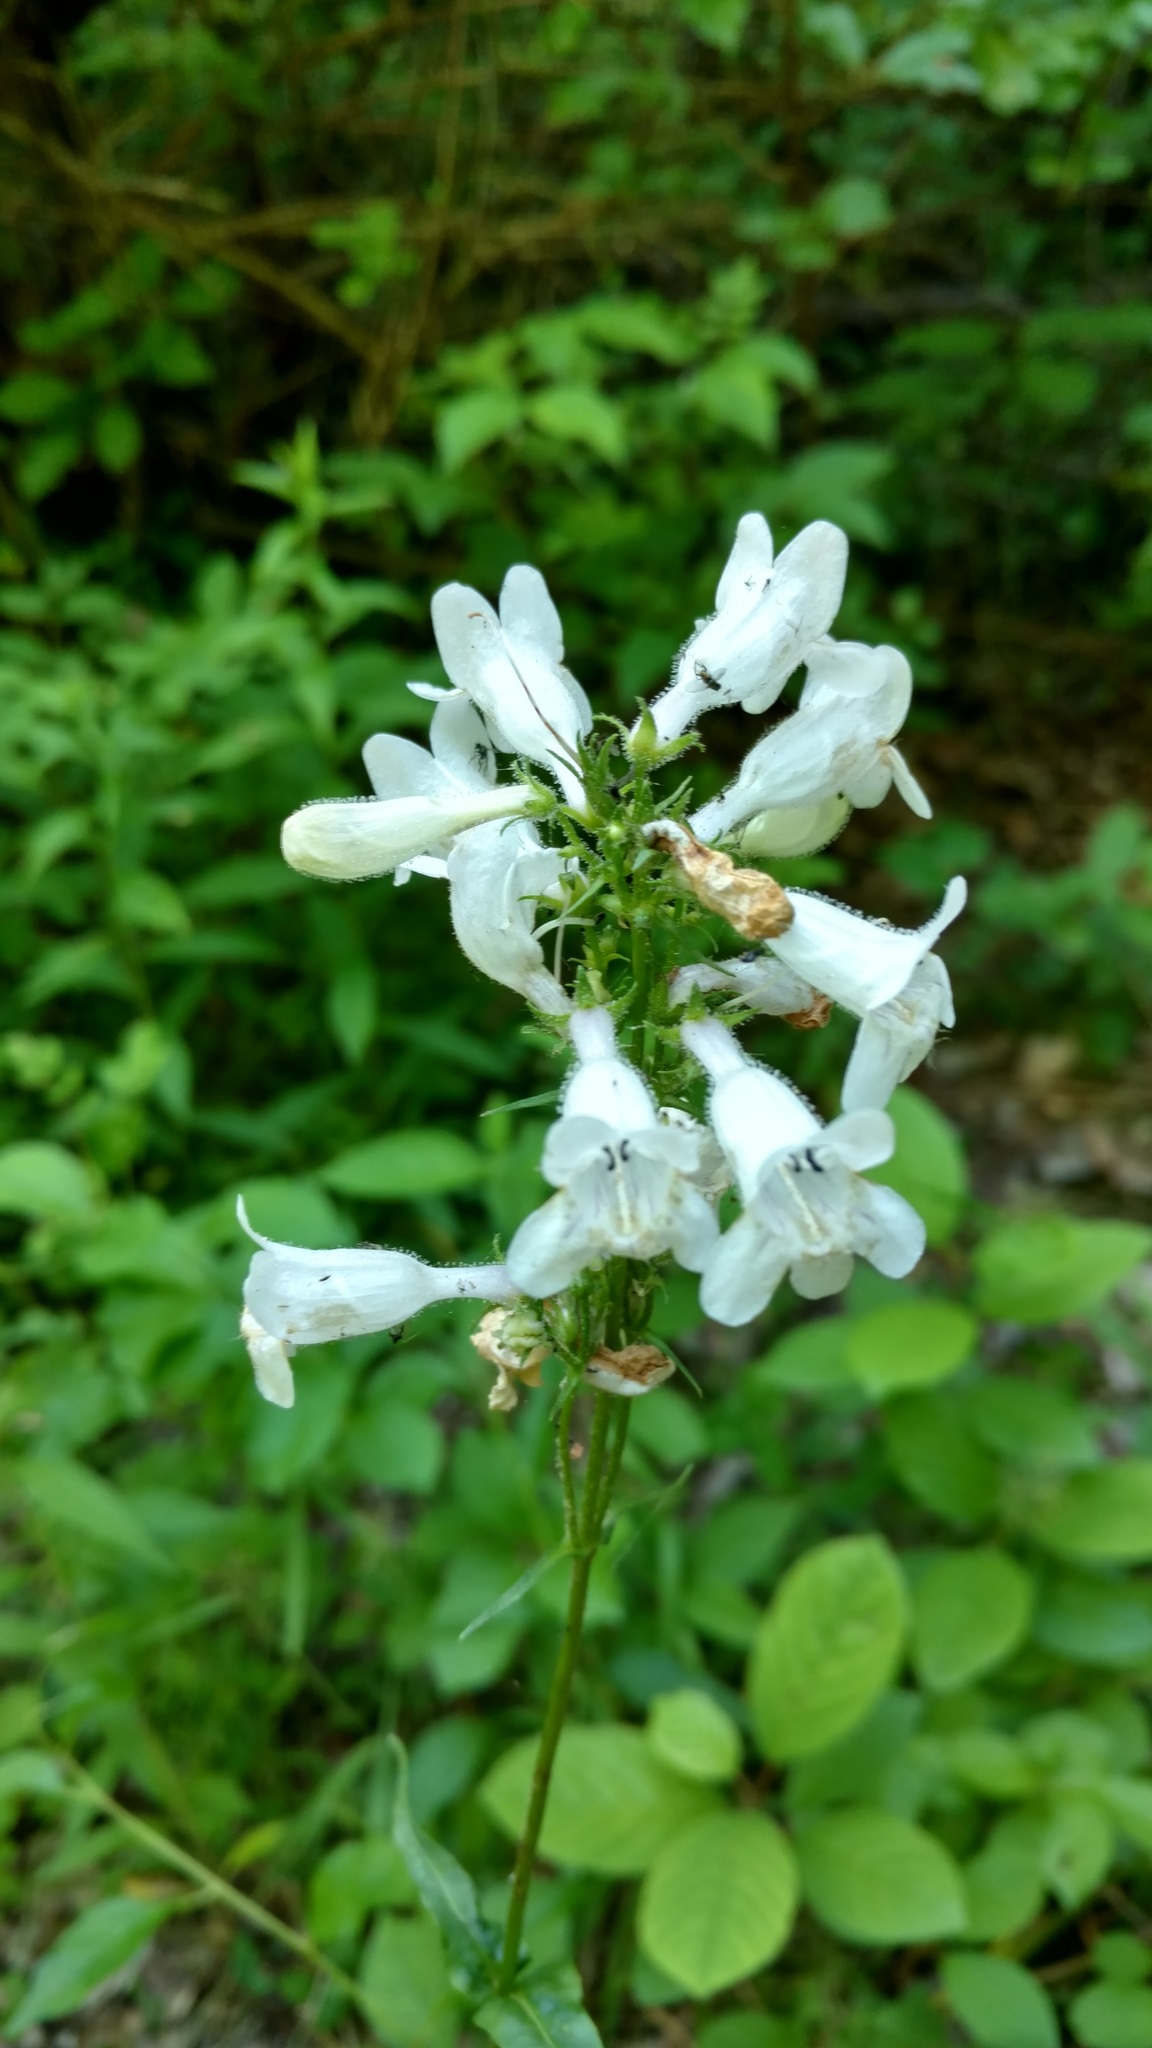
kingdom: Plantae
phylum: Tracheophyta
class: Magnoliopsida
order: Lamiales
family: Plantaginaceae
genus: Penstemon
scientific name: Penstemon digitalis
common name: Foxglove beardtongue
